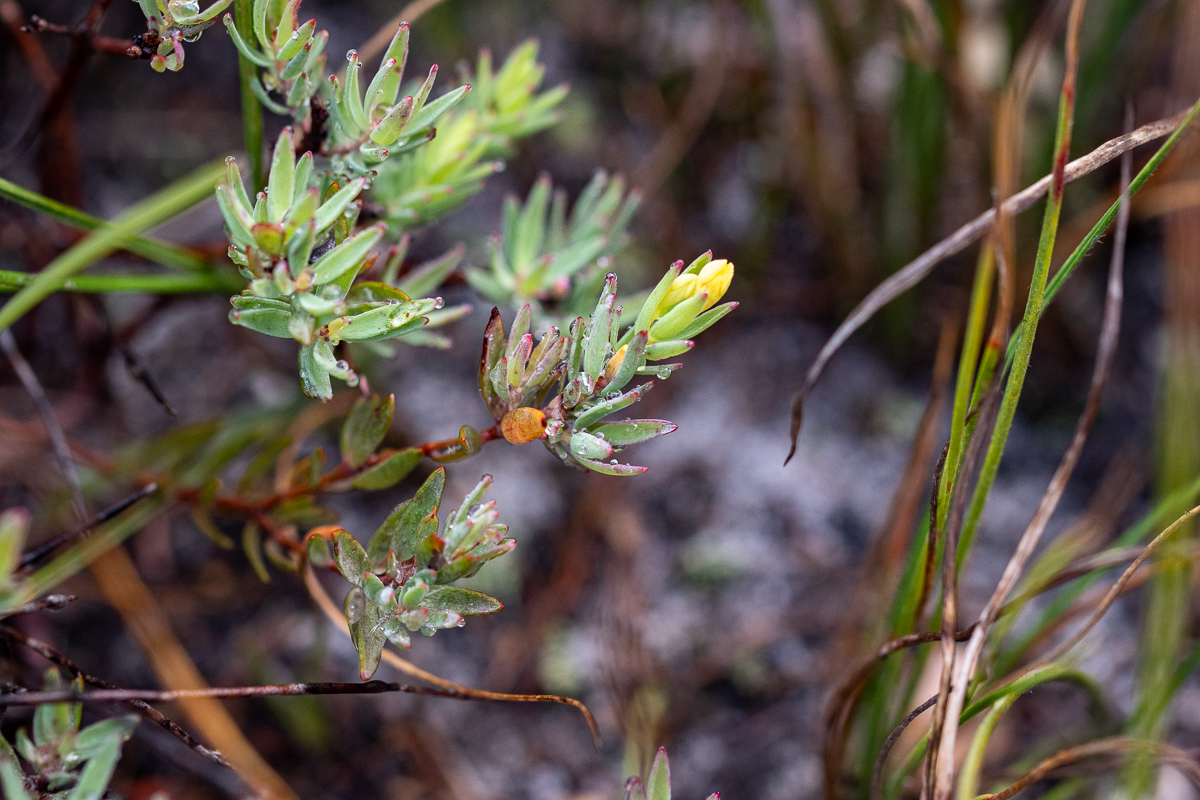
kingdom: Plantae
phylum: Tracheophyta
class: Magnoliopsida
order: Malvales
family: Thymelaeaceae
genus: Gnidia
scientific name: Gnidia juniperifolia
